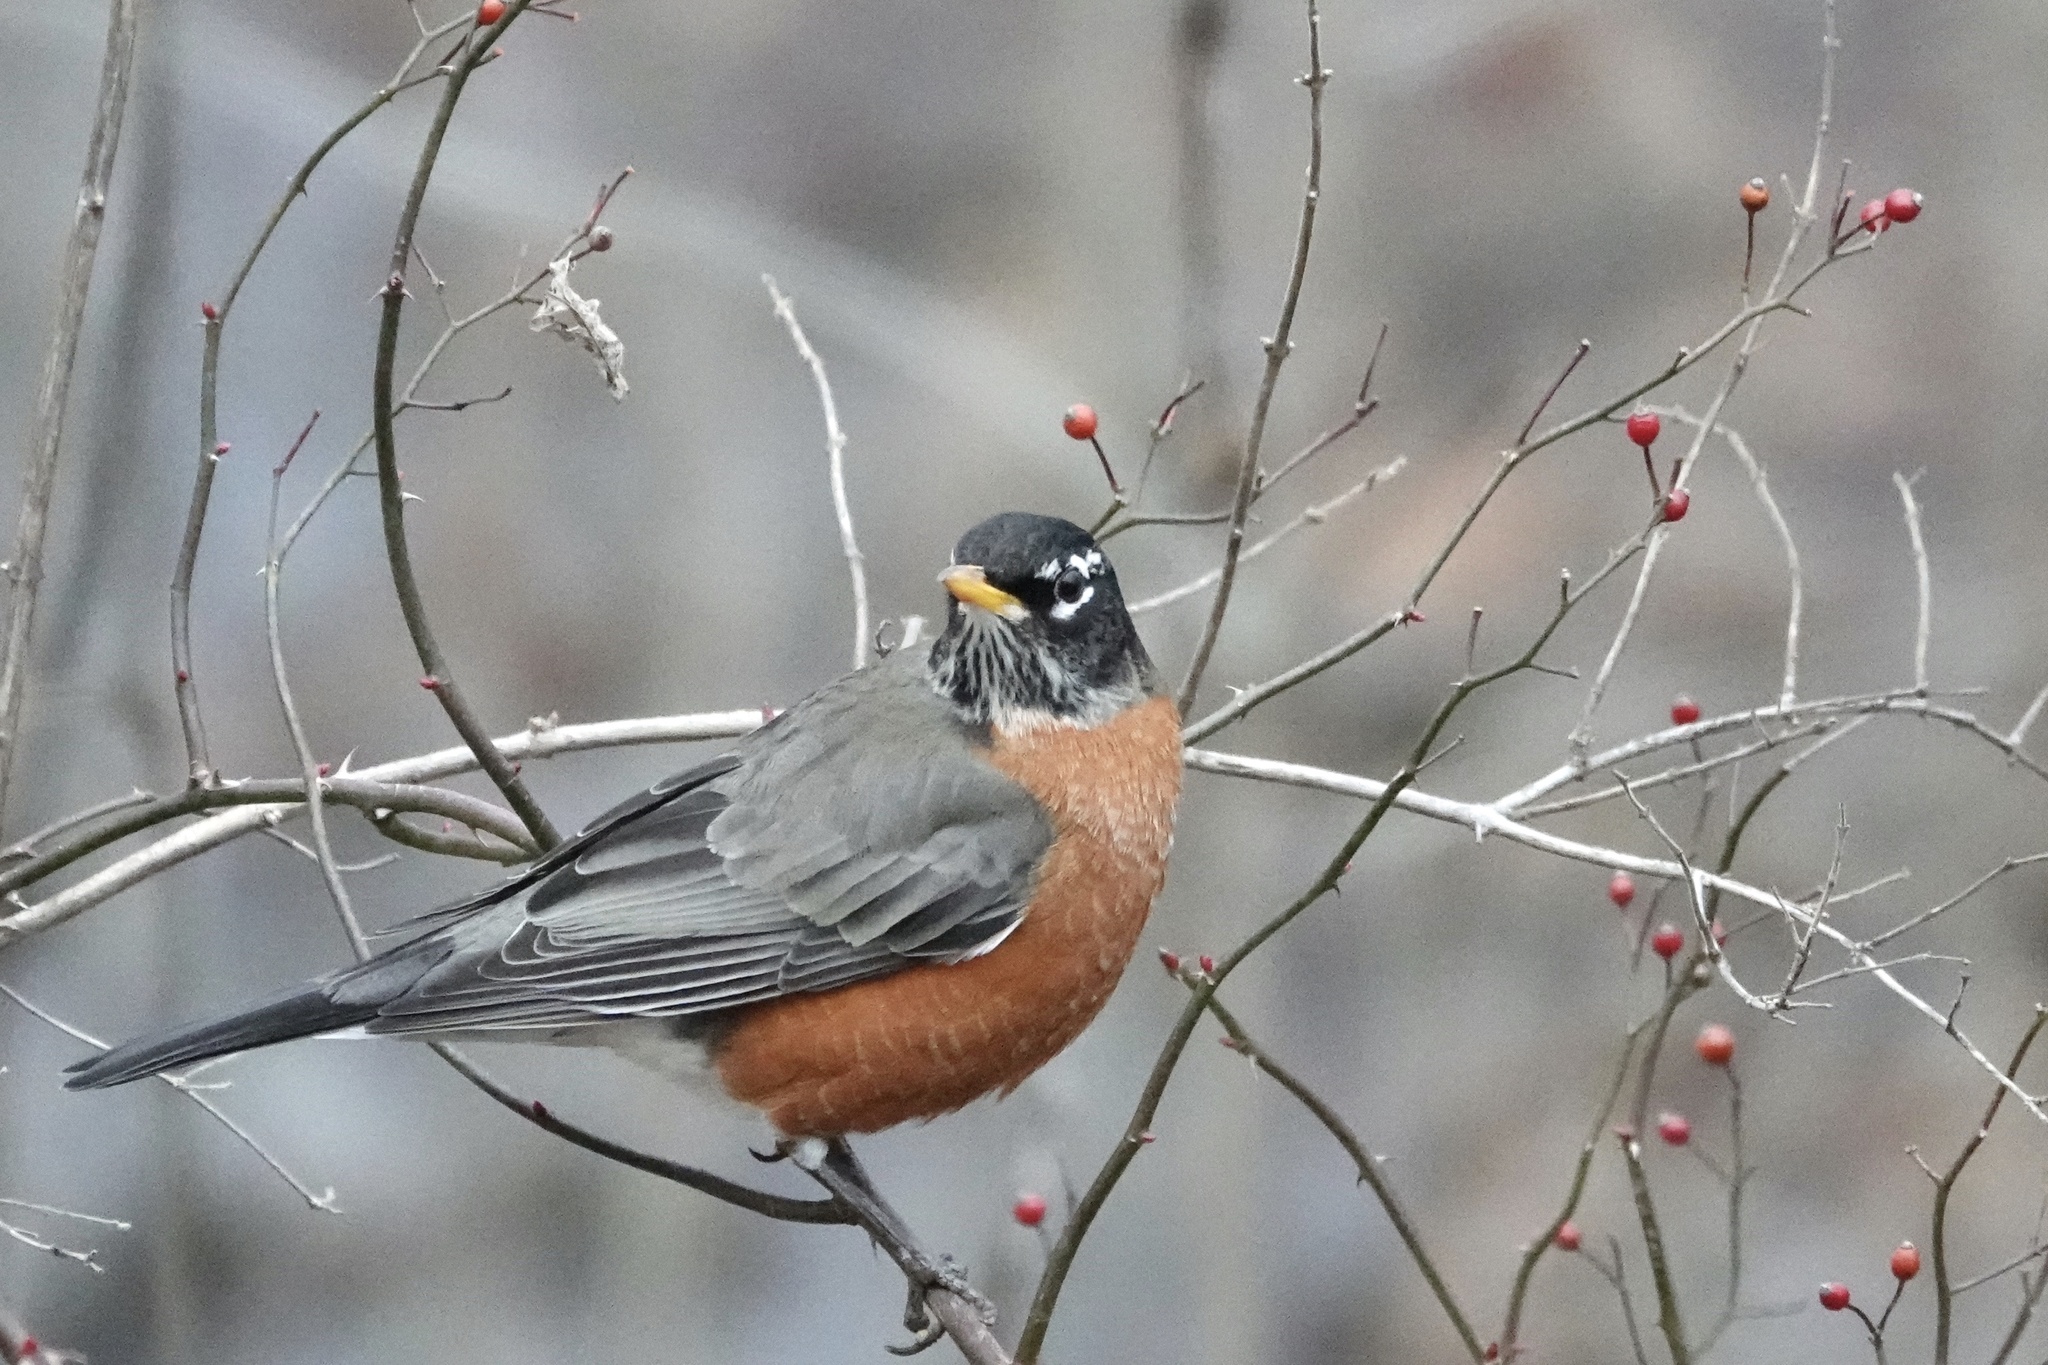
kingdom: Animalia
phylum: Chordata
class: Aves
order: Passeriformes
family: Turdidae
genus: Turdus
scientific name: Turdus migratorius
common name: American robin
